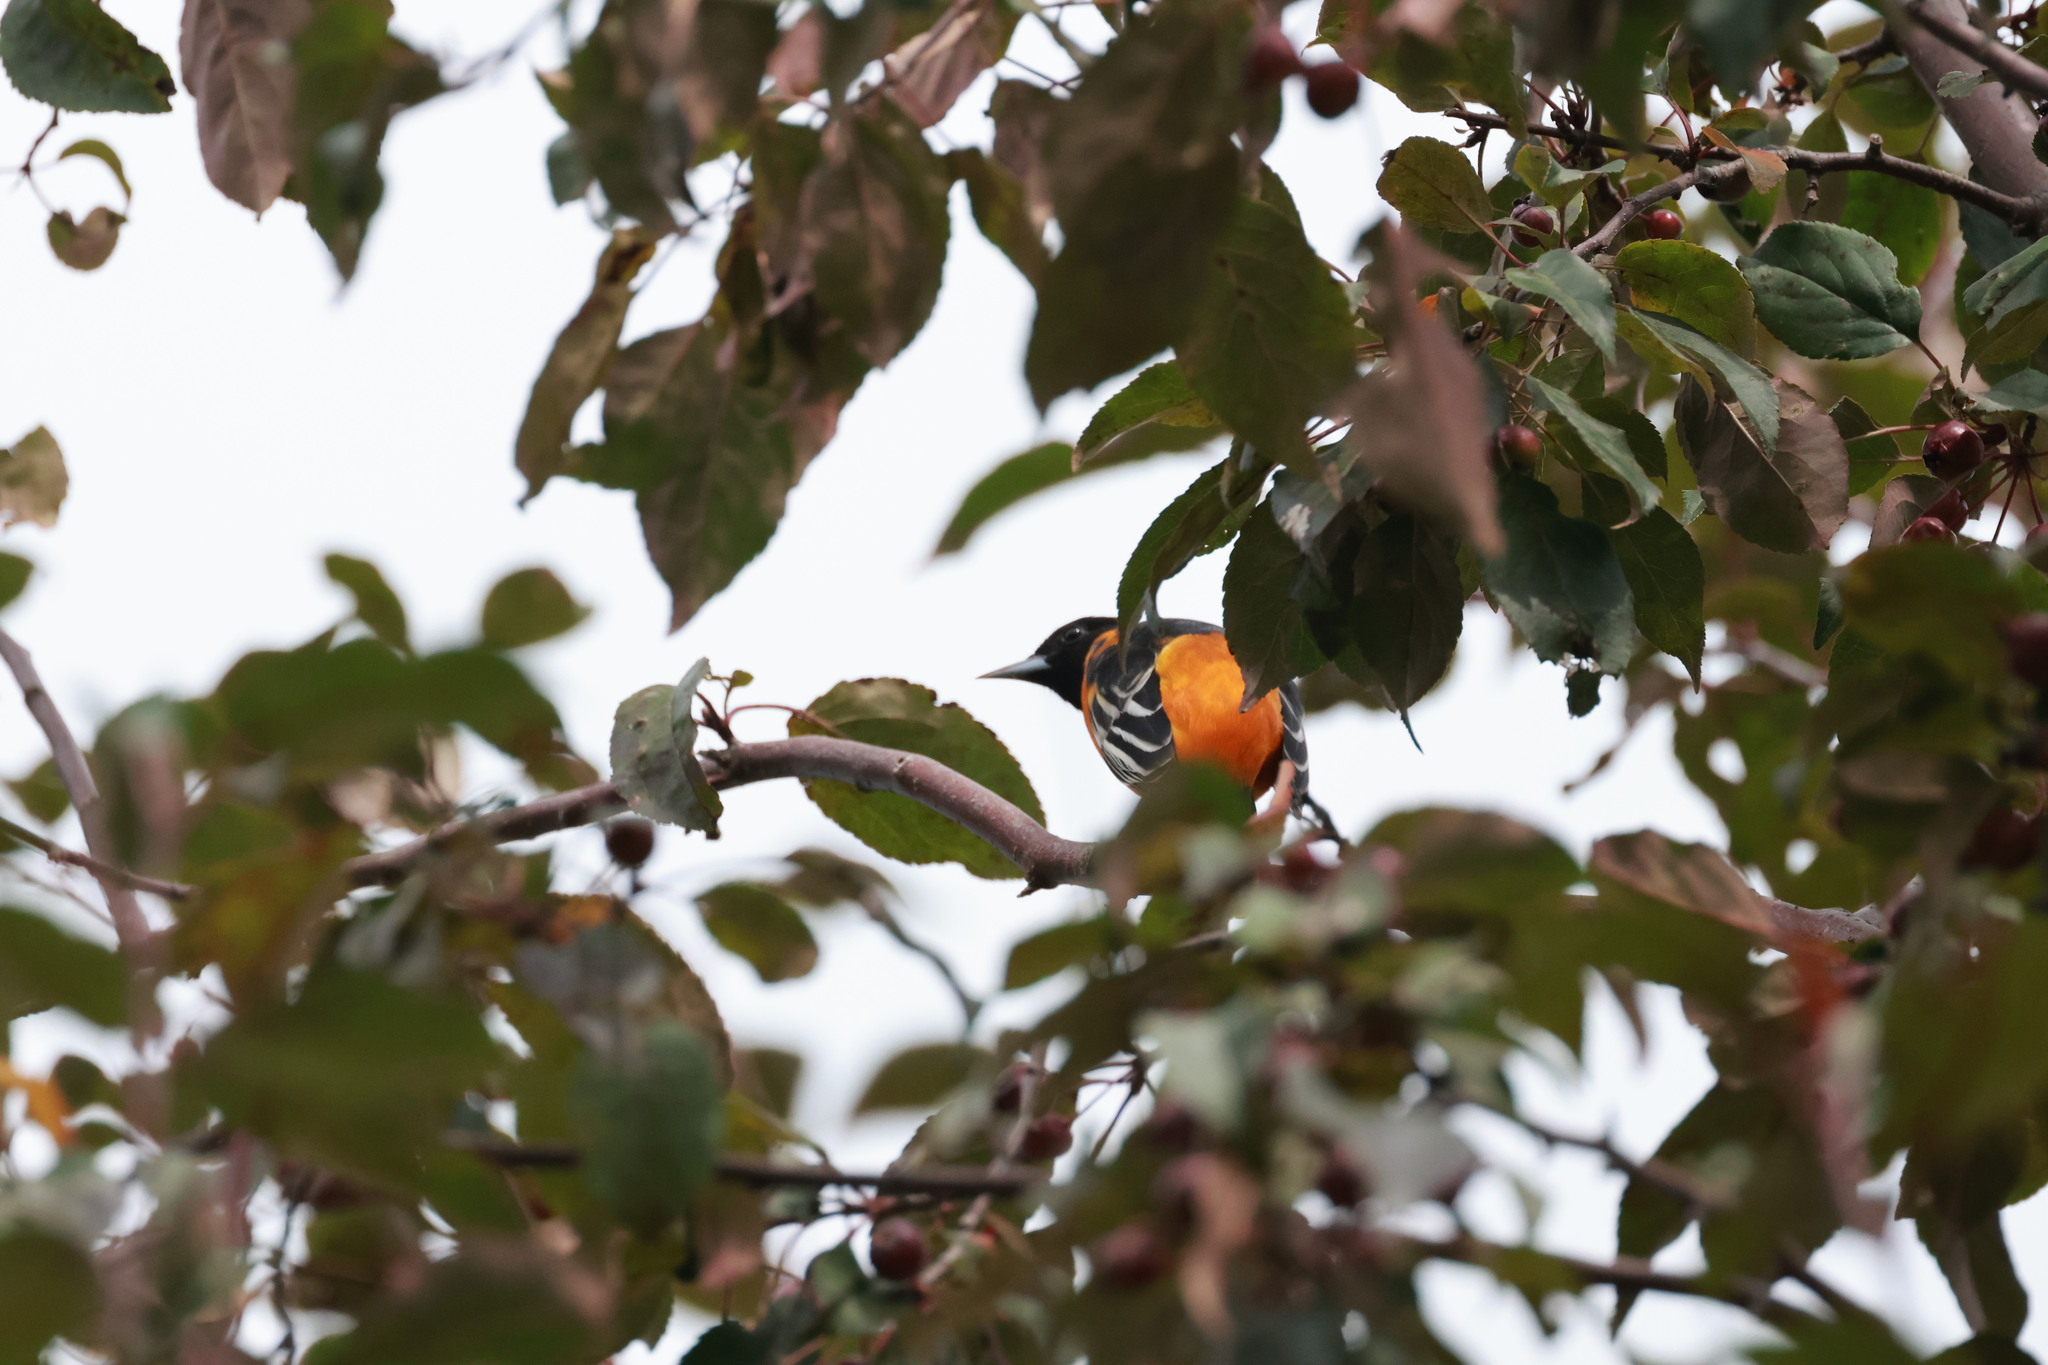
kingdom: Animalia
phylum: Chordata
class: Aves
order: Passeriformes
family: Icteridae
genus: Icterus
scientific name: Icterus galbula
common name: Baltimore oriole
